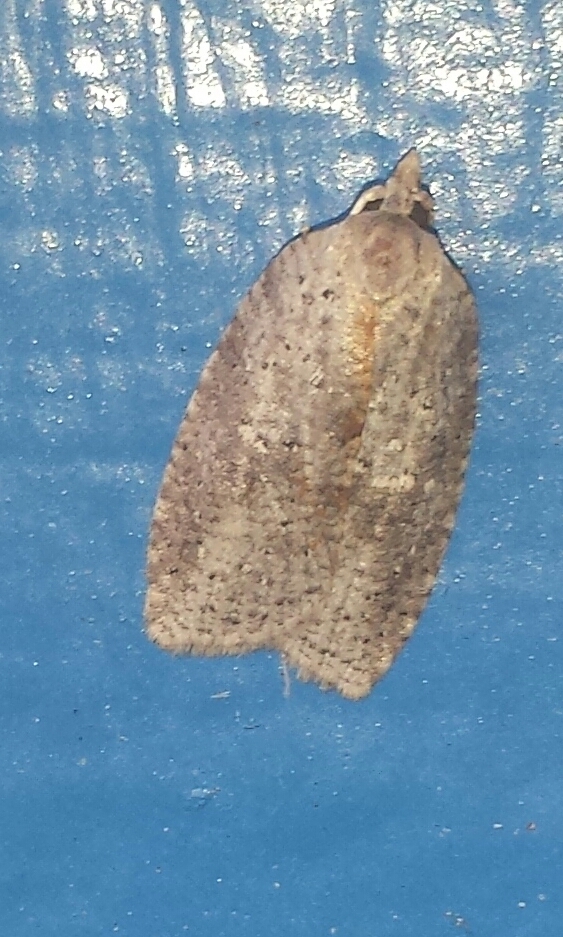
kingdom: Animalia
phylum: Arthropoda
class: Insecta
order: Lepidoptera
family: Tortricidae
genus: Amorbia
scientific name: Amorbia humerosana
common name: White-lined leafroller moth
